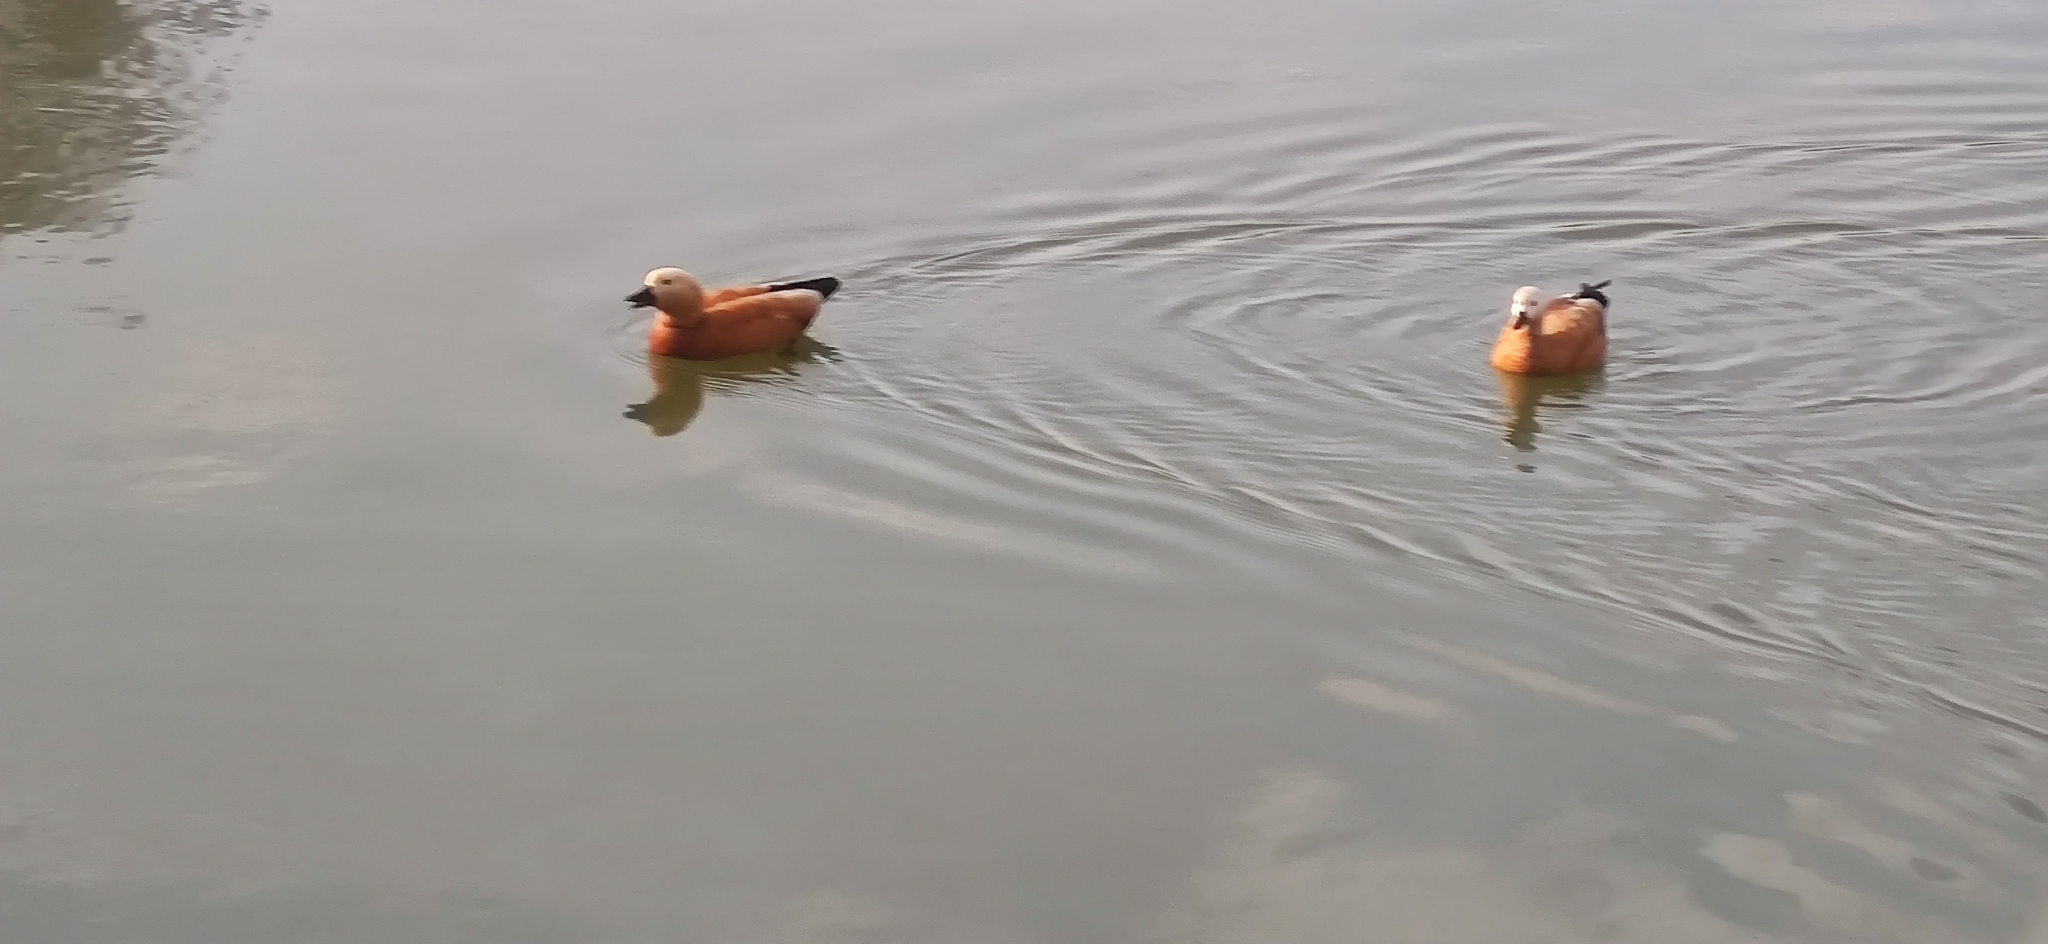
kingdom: Animalia
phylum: Chordata
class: Aves
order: Anseriformes
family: Anatidae
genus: Tadorna
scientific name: Tadorna ferruginea
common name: Ruddy shelduck
